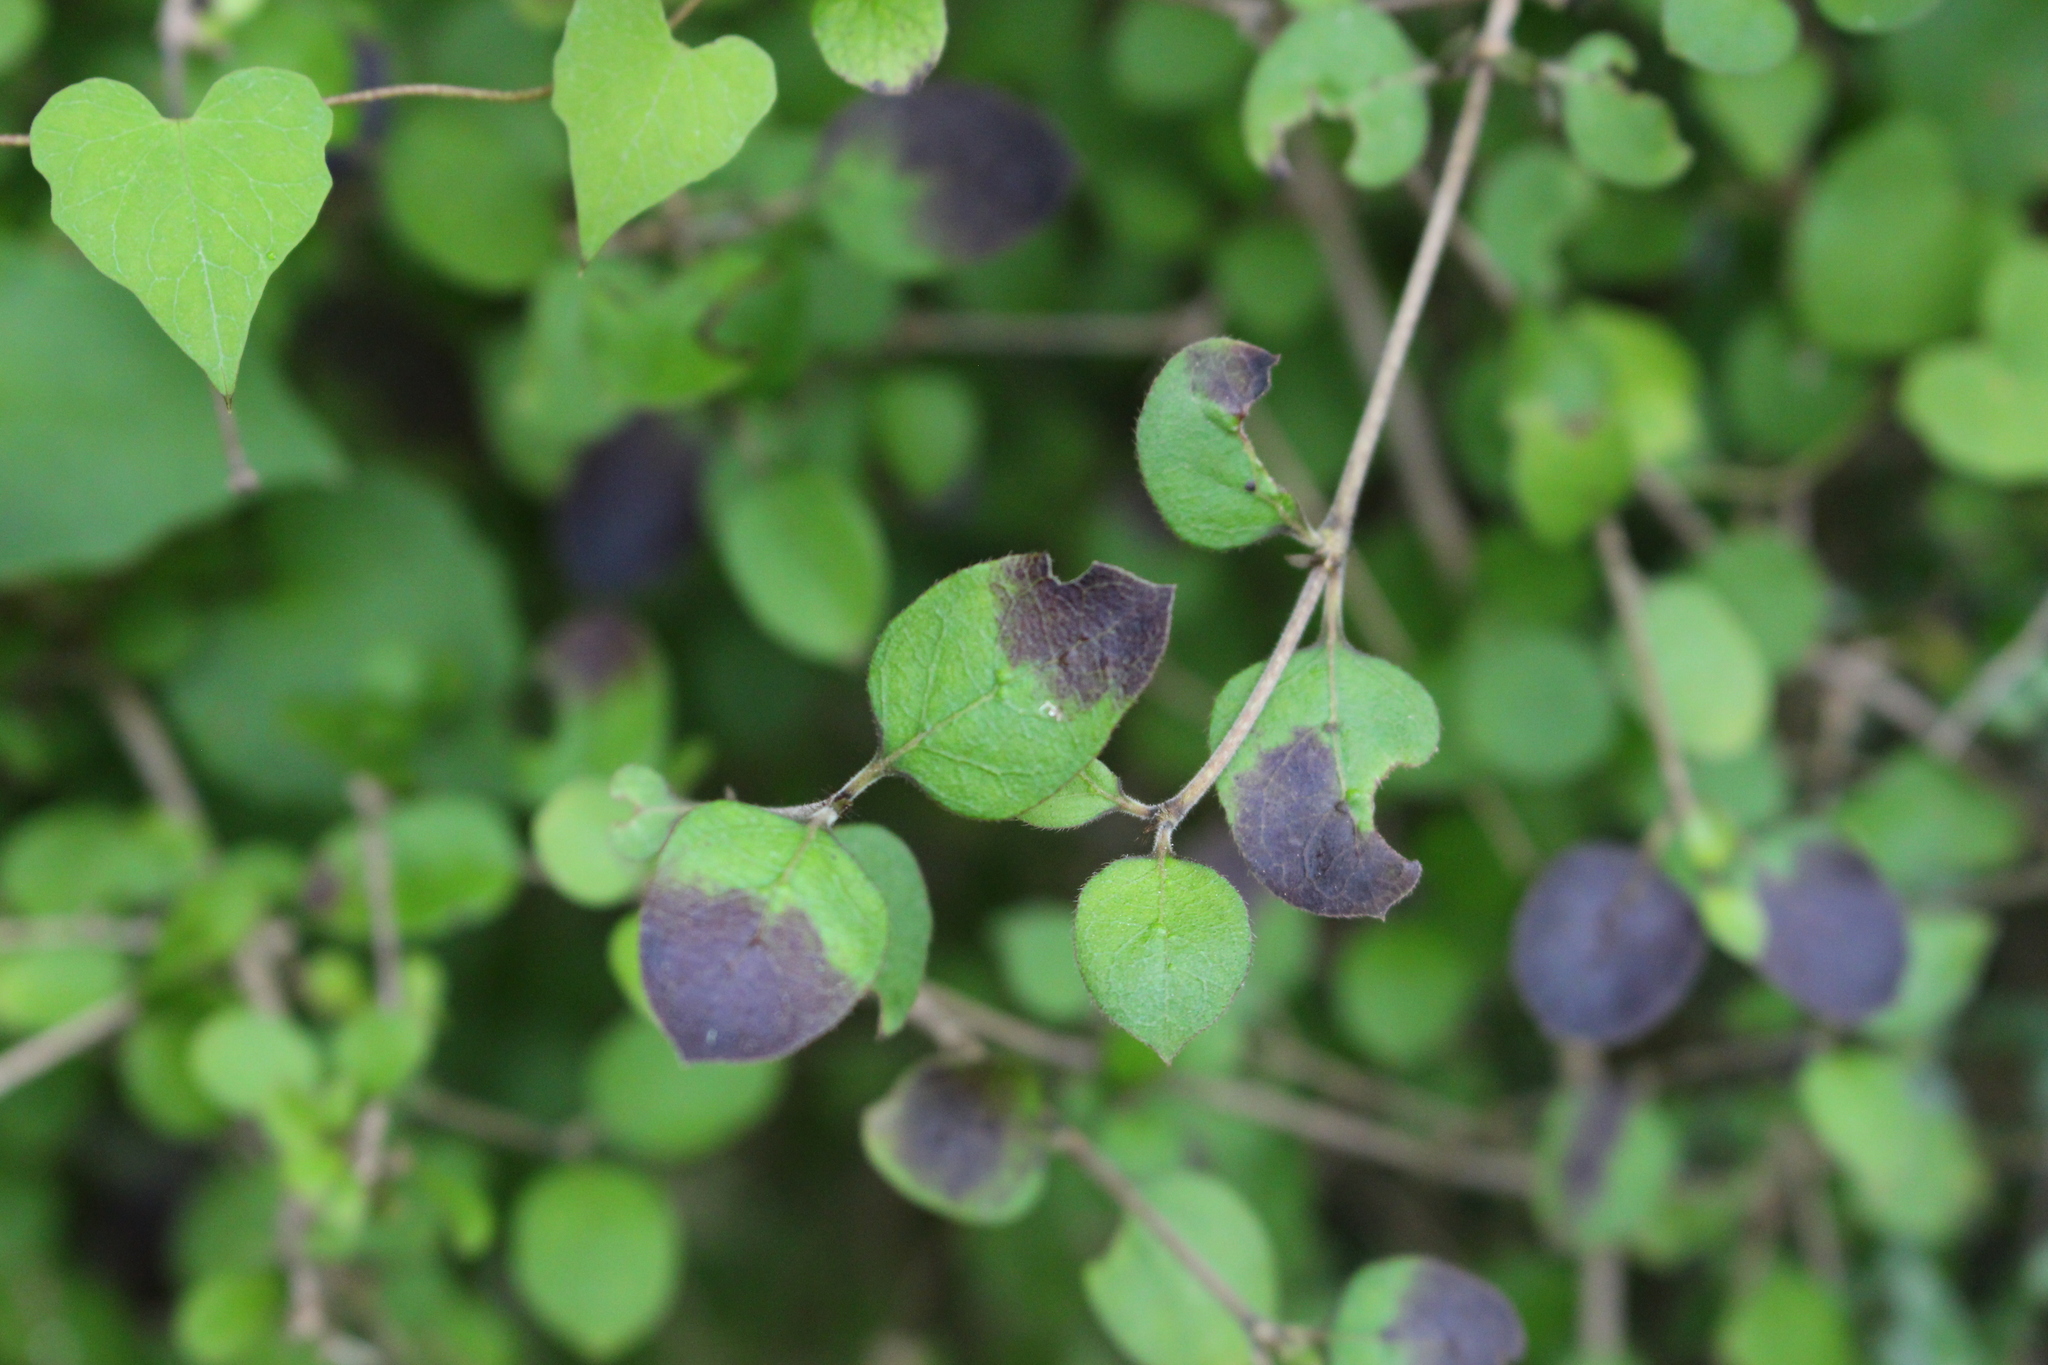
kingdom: Plantae
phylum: Tracheophyta
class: Magnoliopsida
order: Gentianales
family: Rubiaceae
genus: Coprosma
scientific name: Coprosma rotundifolia
